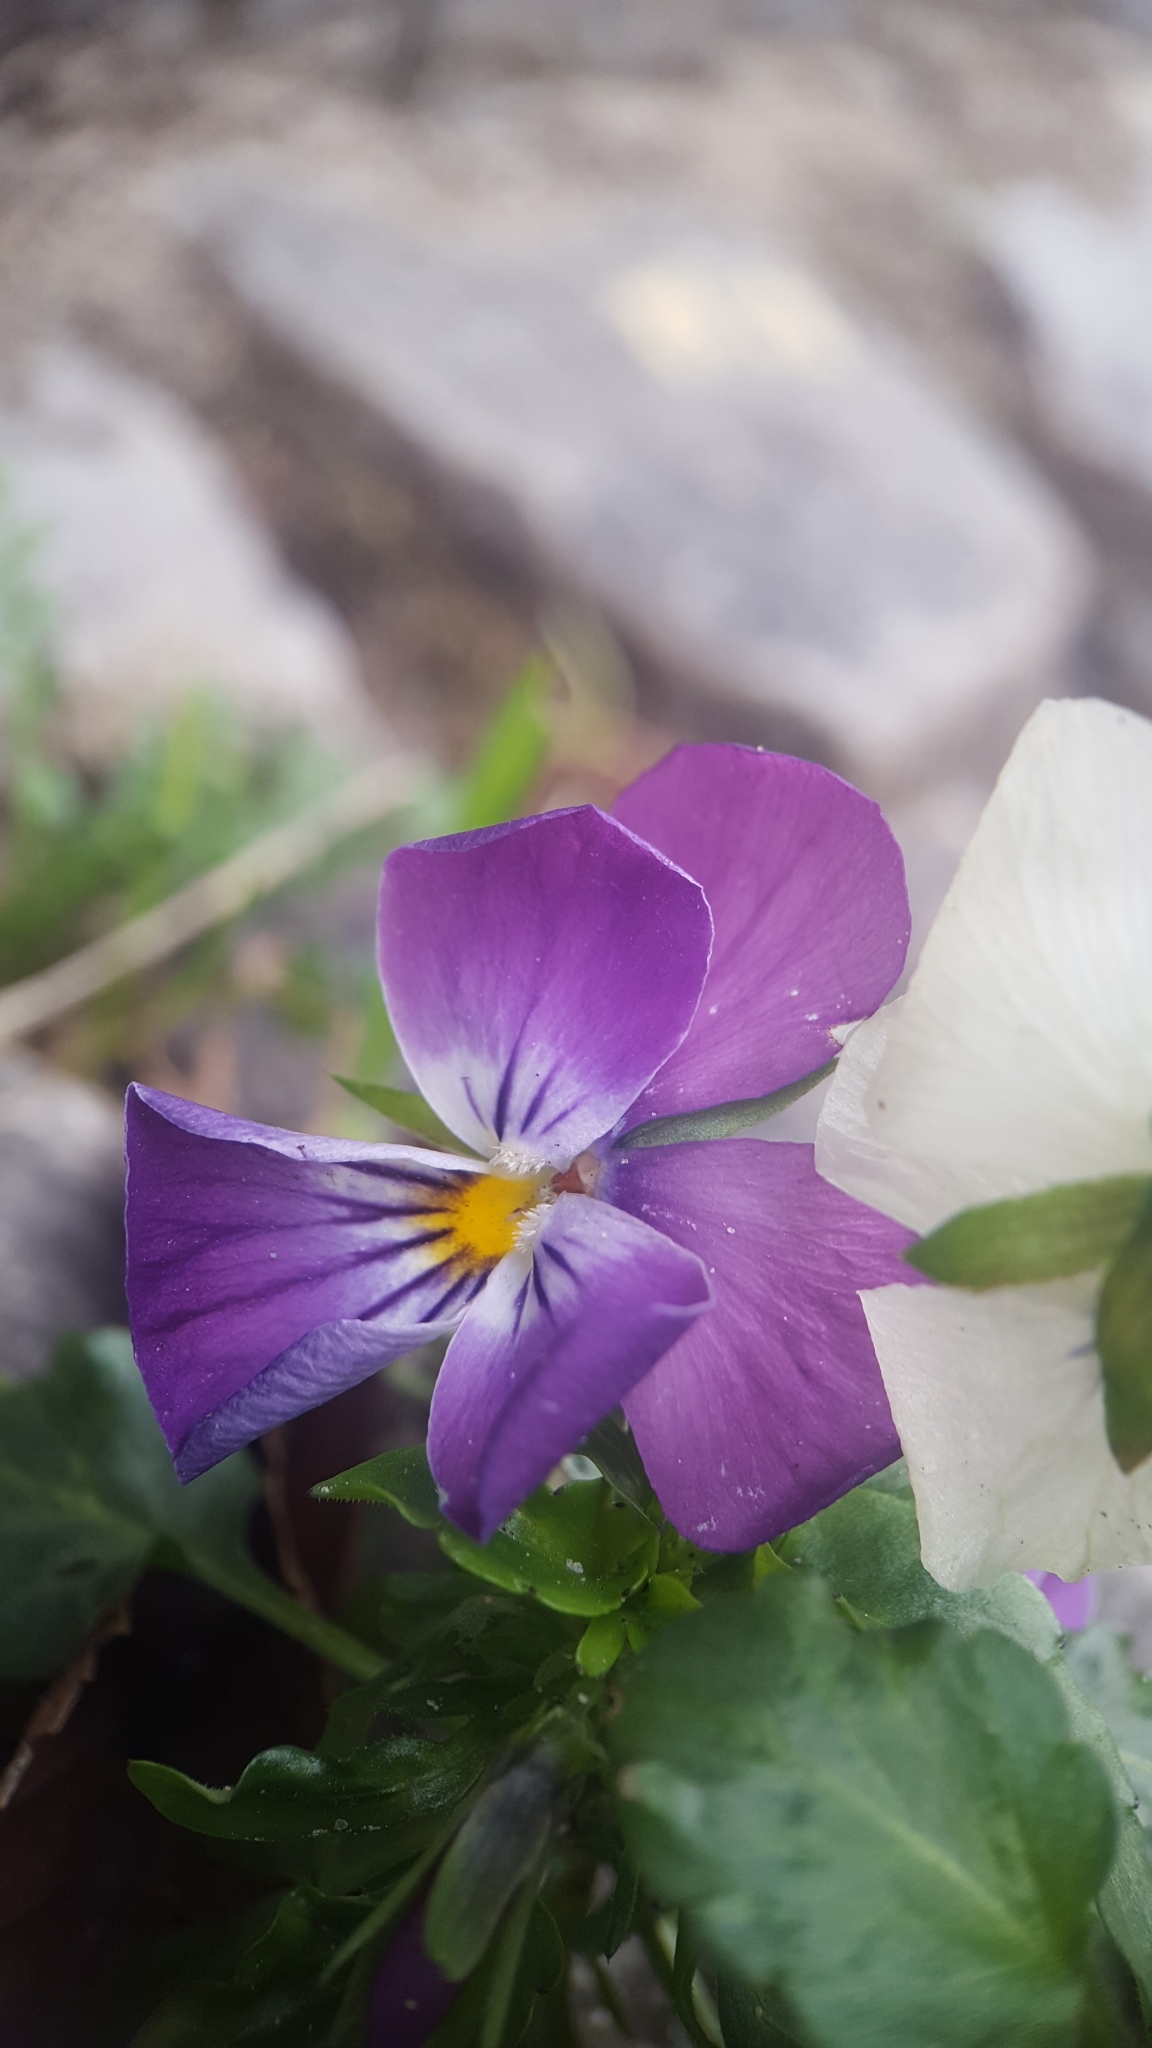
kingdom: Plantae
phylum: Tracheophyta
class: Magnoliopsida
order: Malpighiales
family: Violaceae
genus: Viola
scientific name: Viola wittrockiana
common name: Garden pansy
